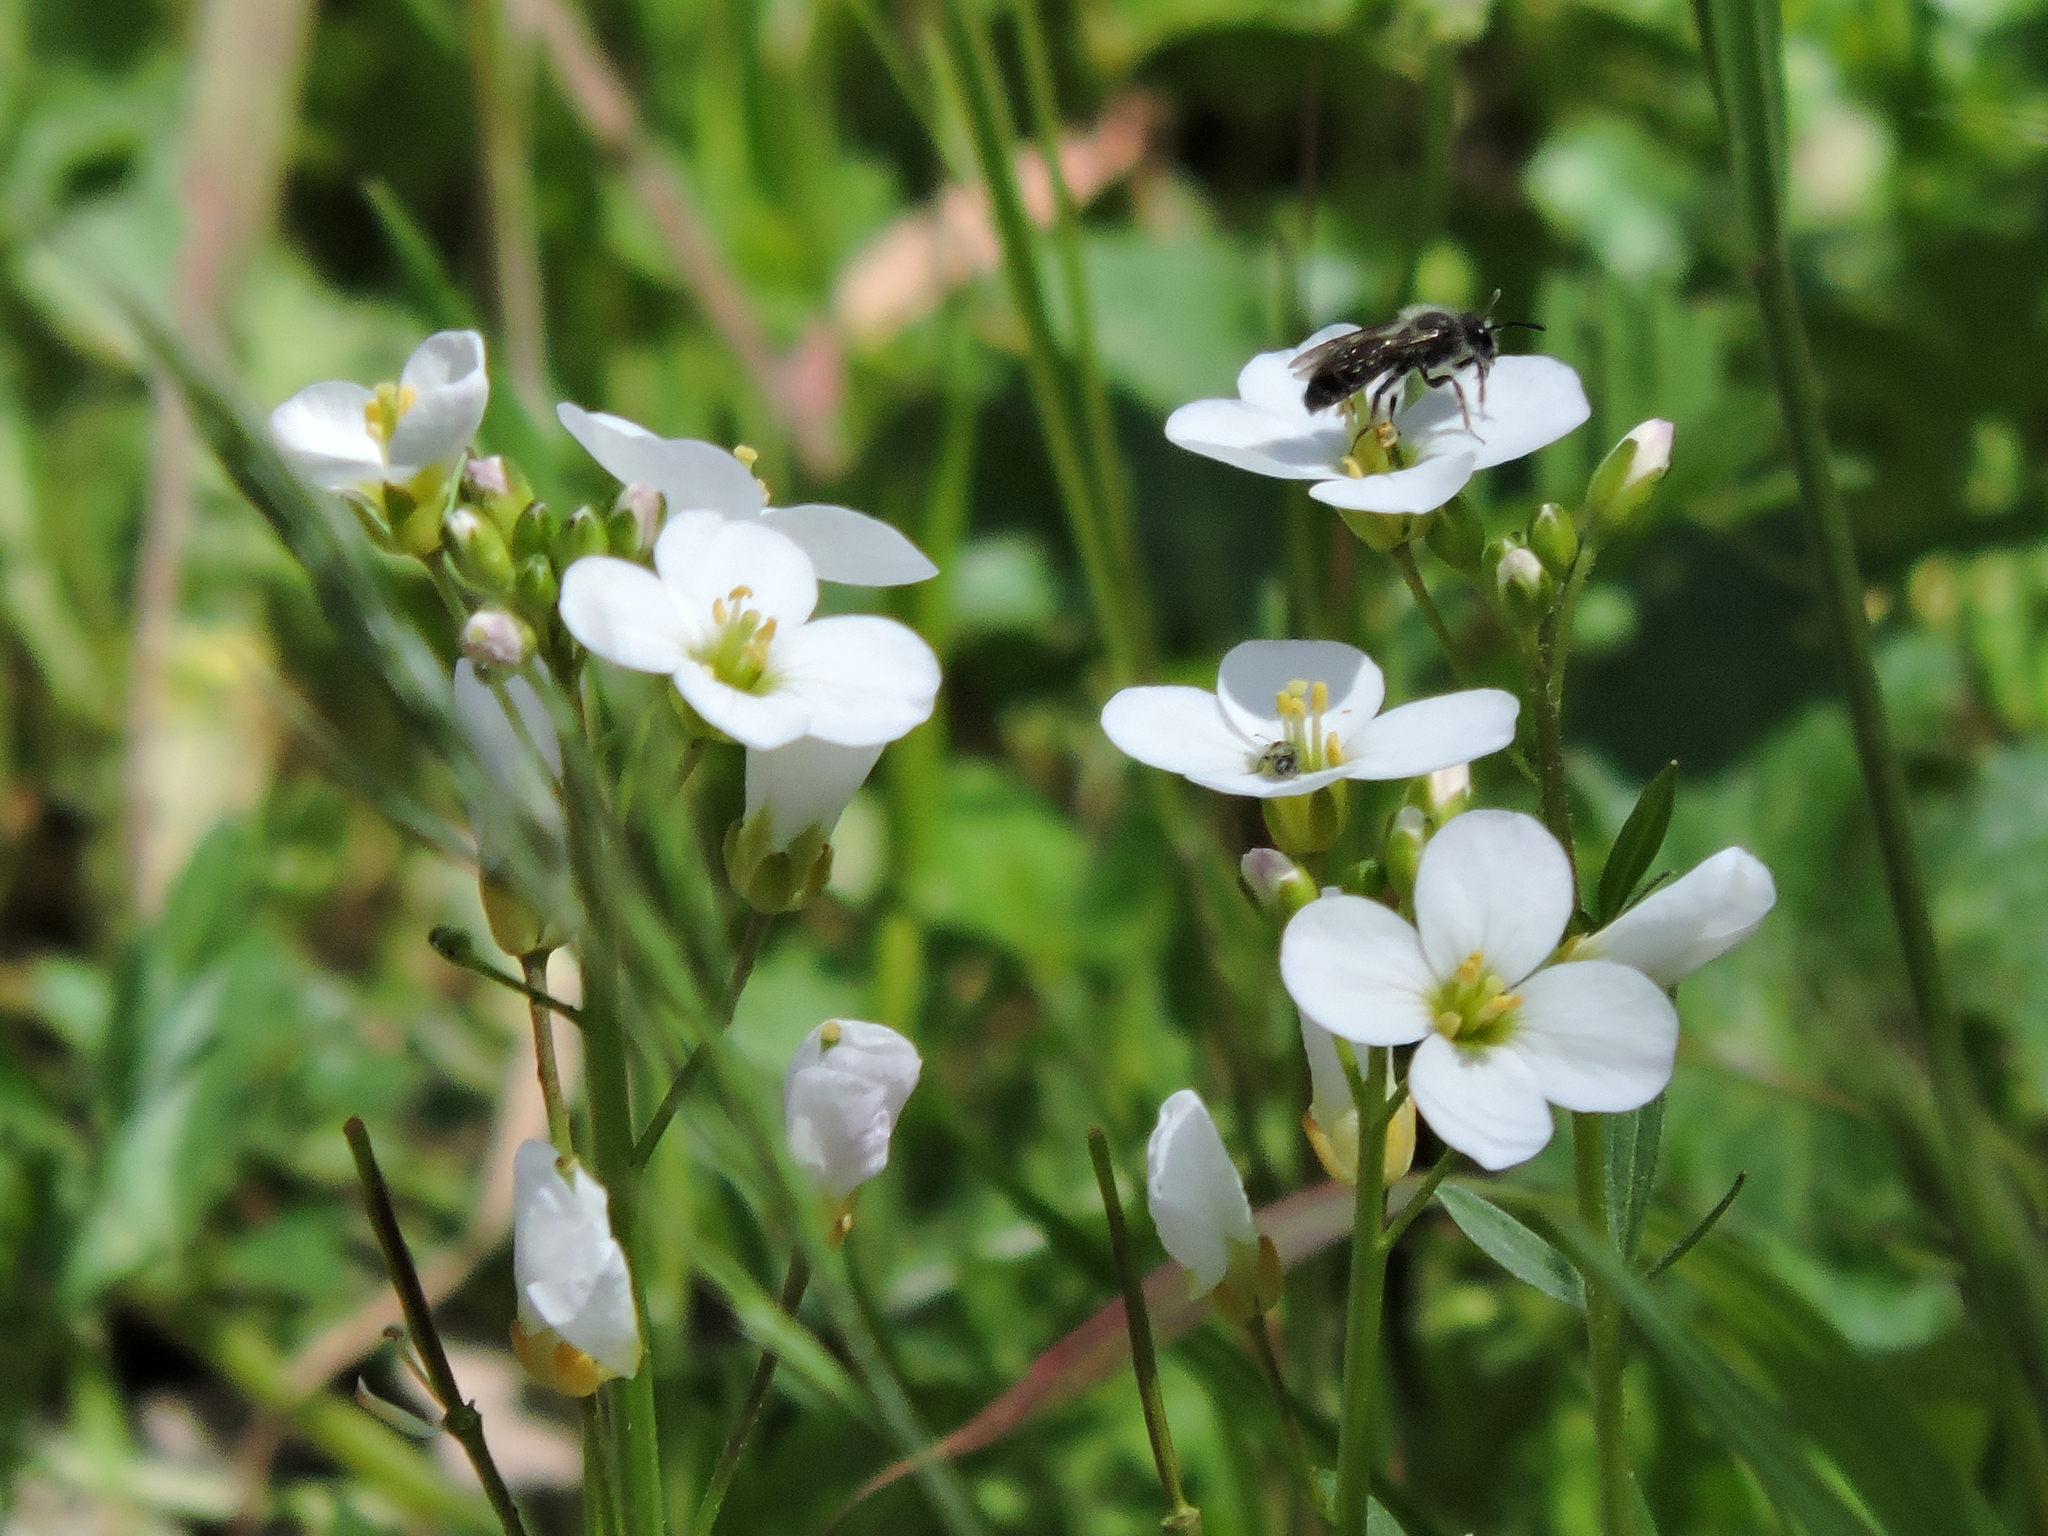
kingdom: Plantae
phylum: Tracheophyta
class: Magnoliopsida
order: Brassicales
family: Brassicaceae
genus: Cardamine
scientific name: Cardamine californica
